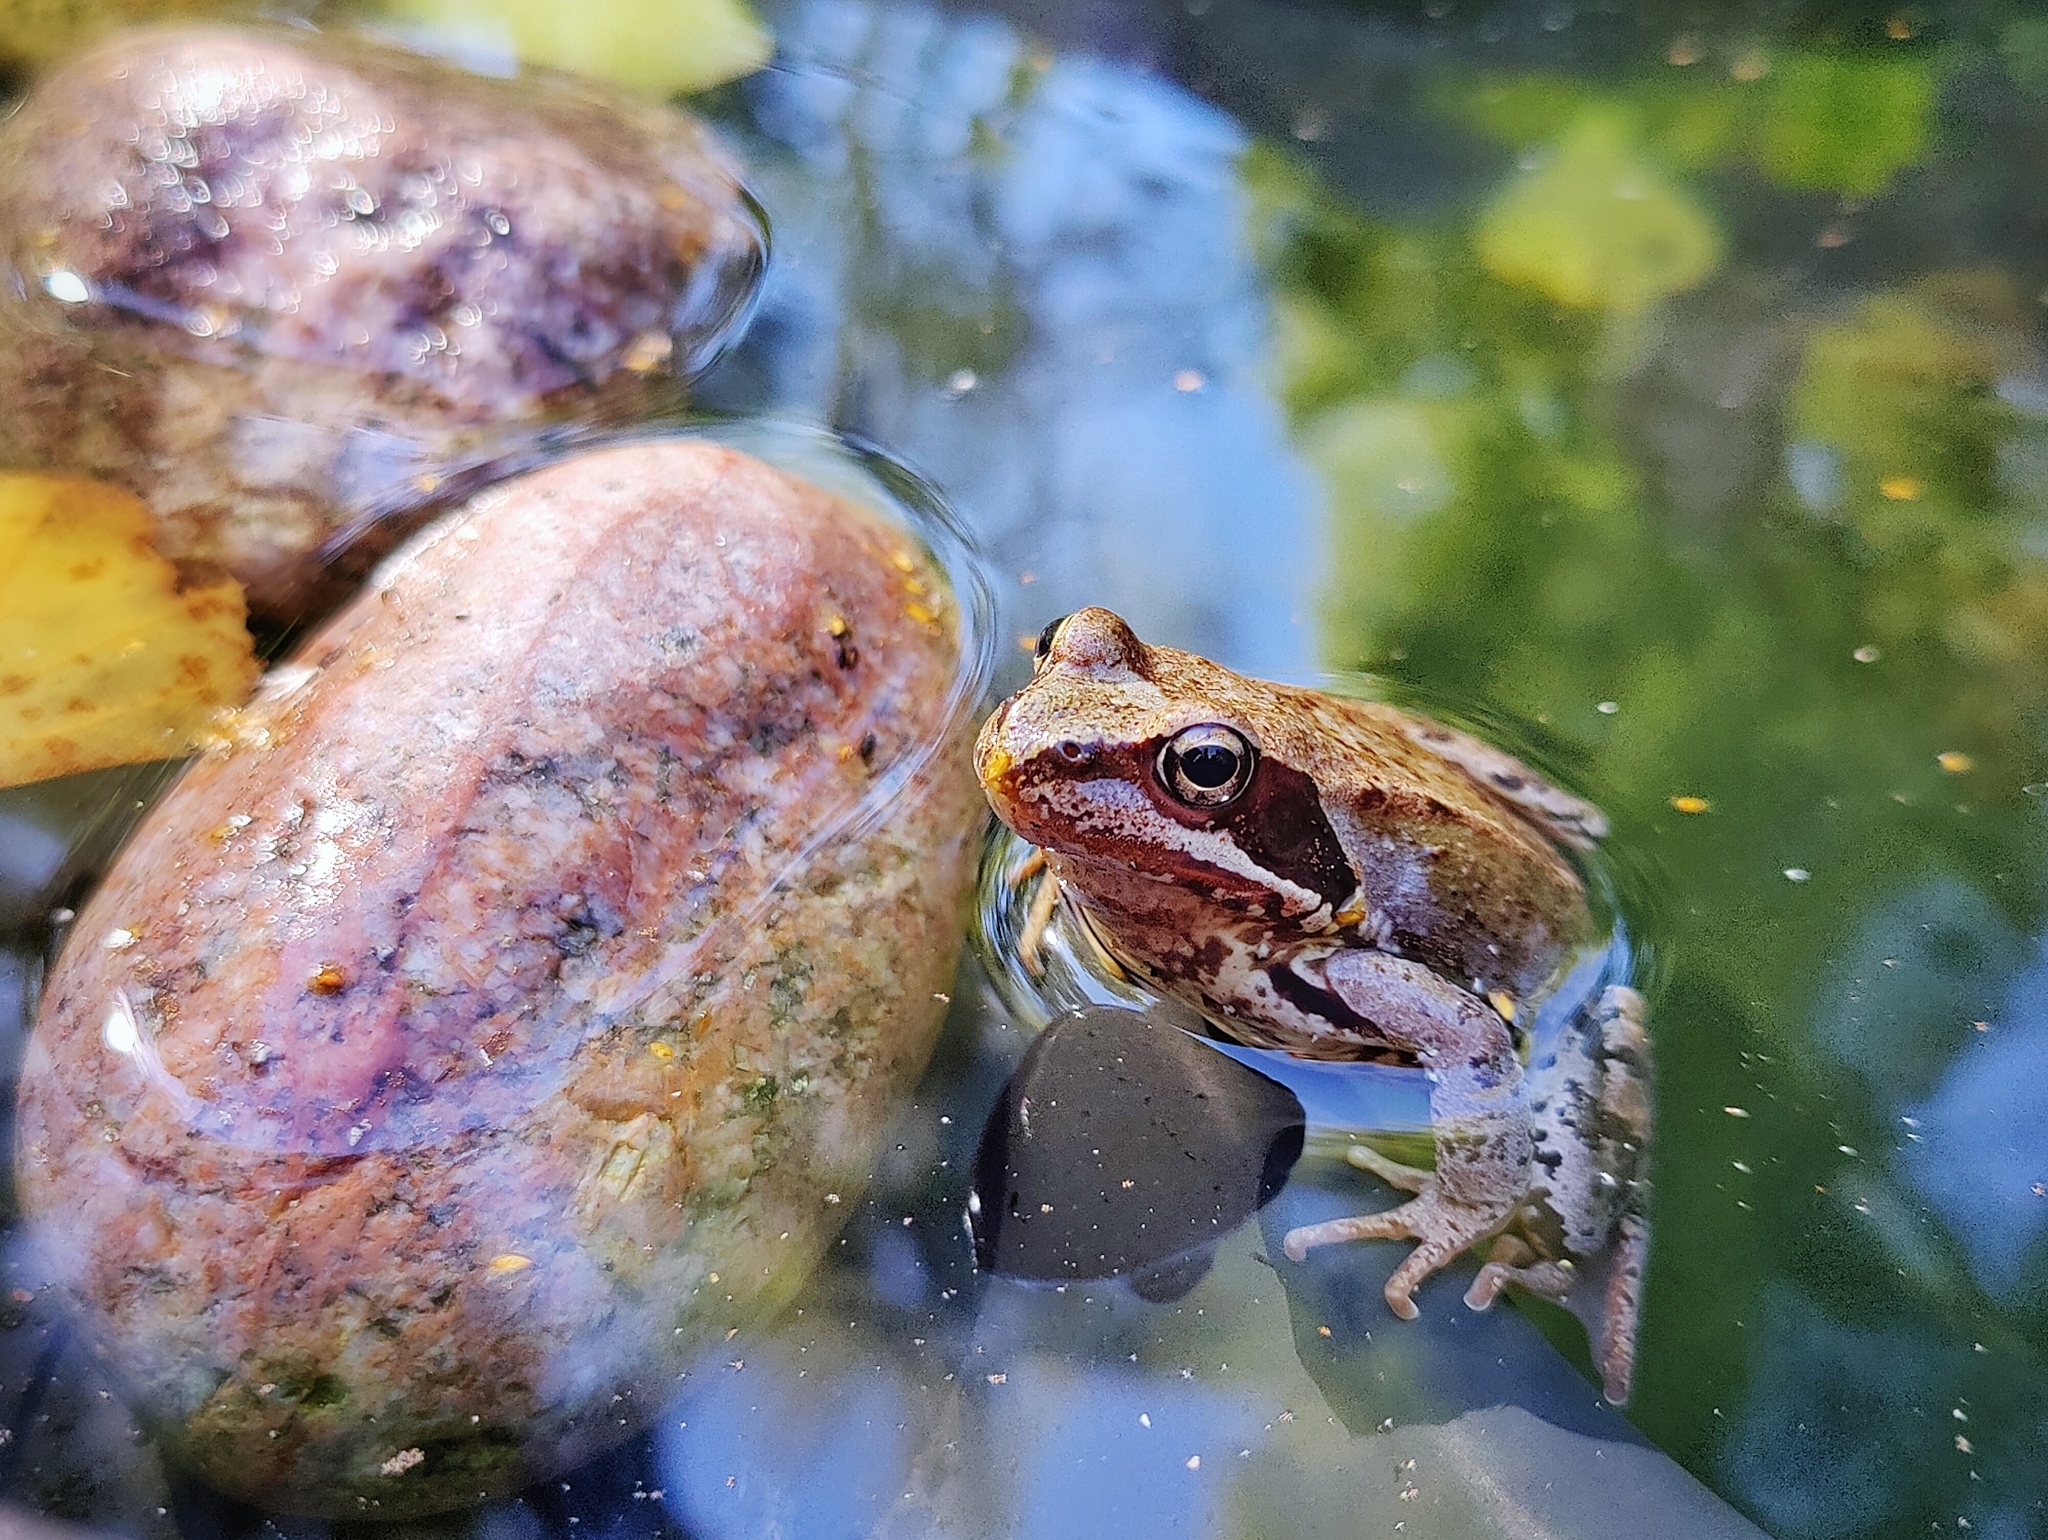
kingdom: Animalia
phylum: Chordata
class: Amphibia
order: Anura
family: Ranidae
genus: Rana
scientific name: Rana temporaria
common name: Common frog
